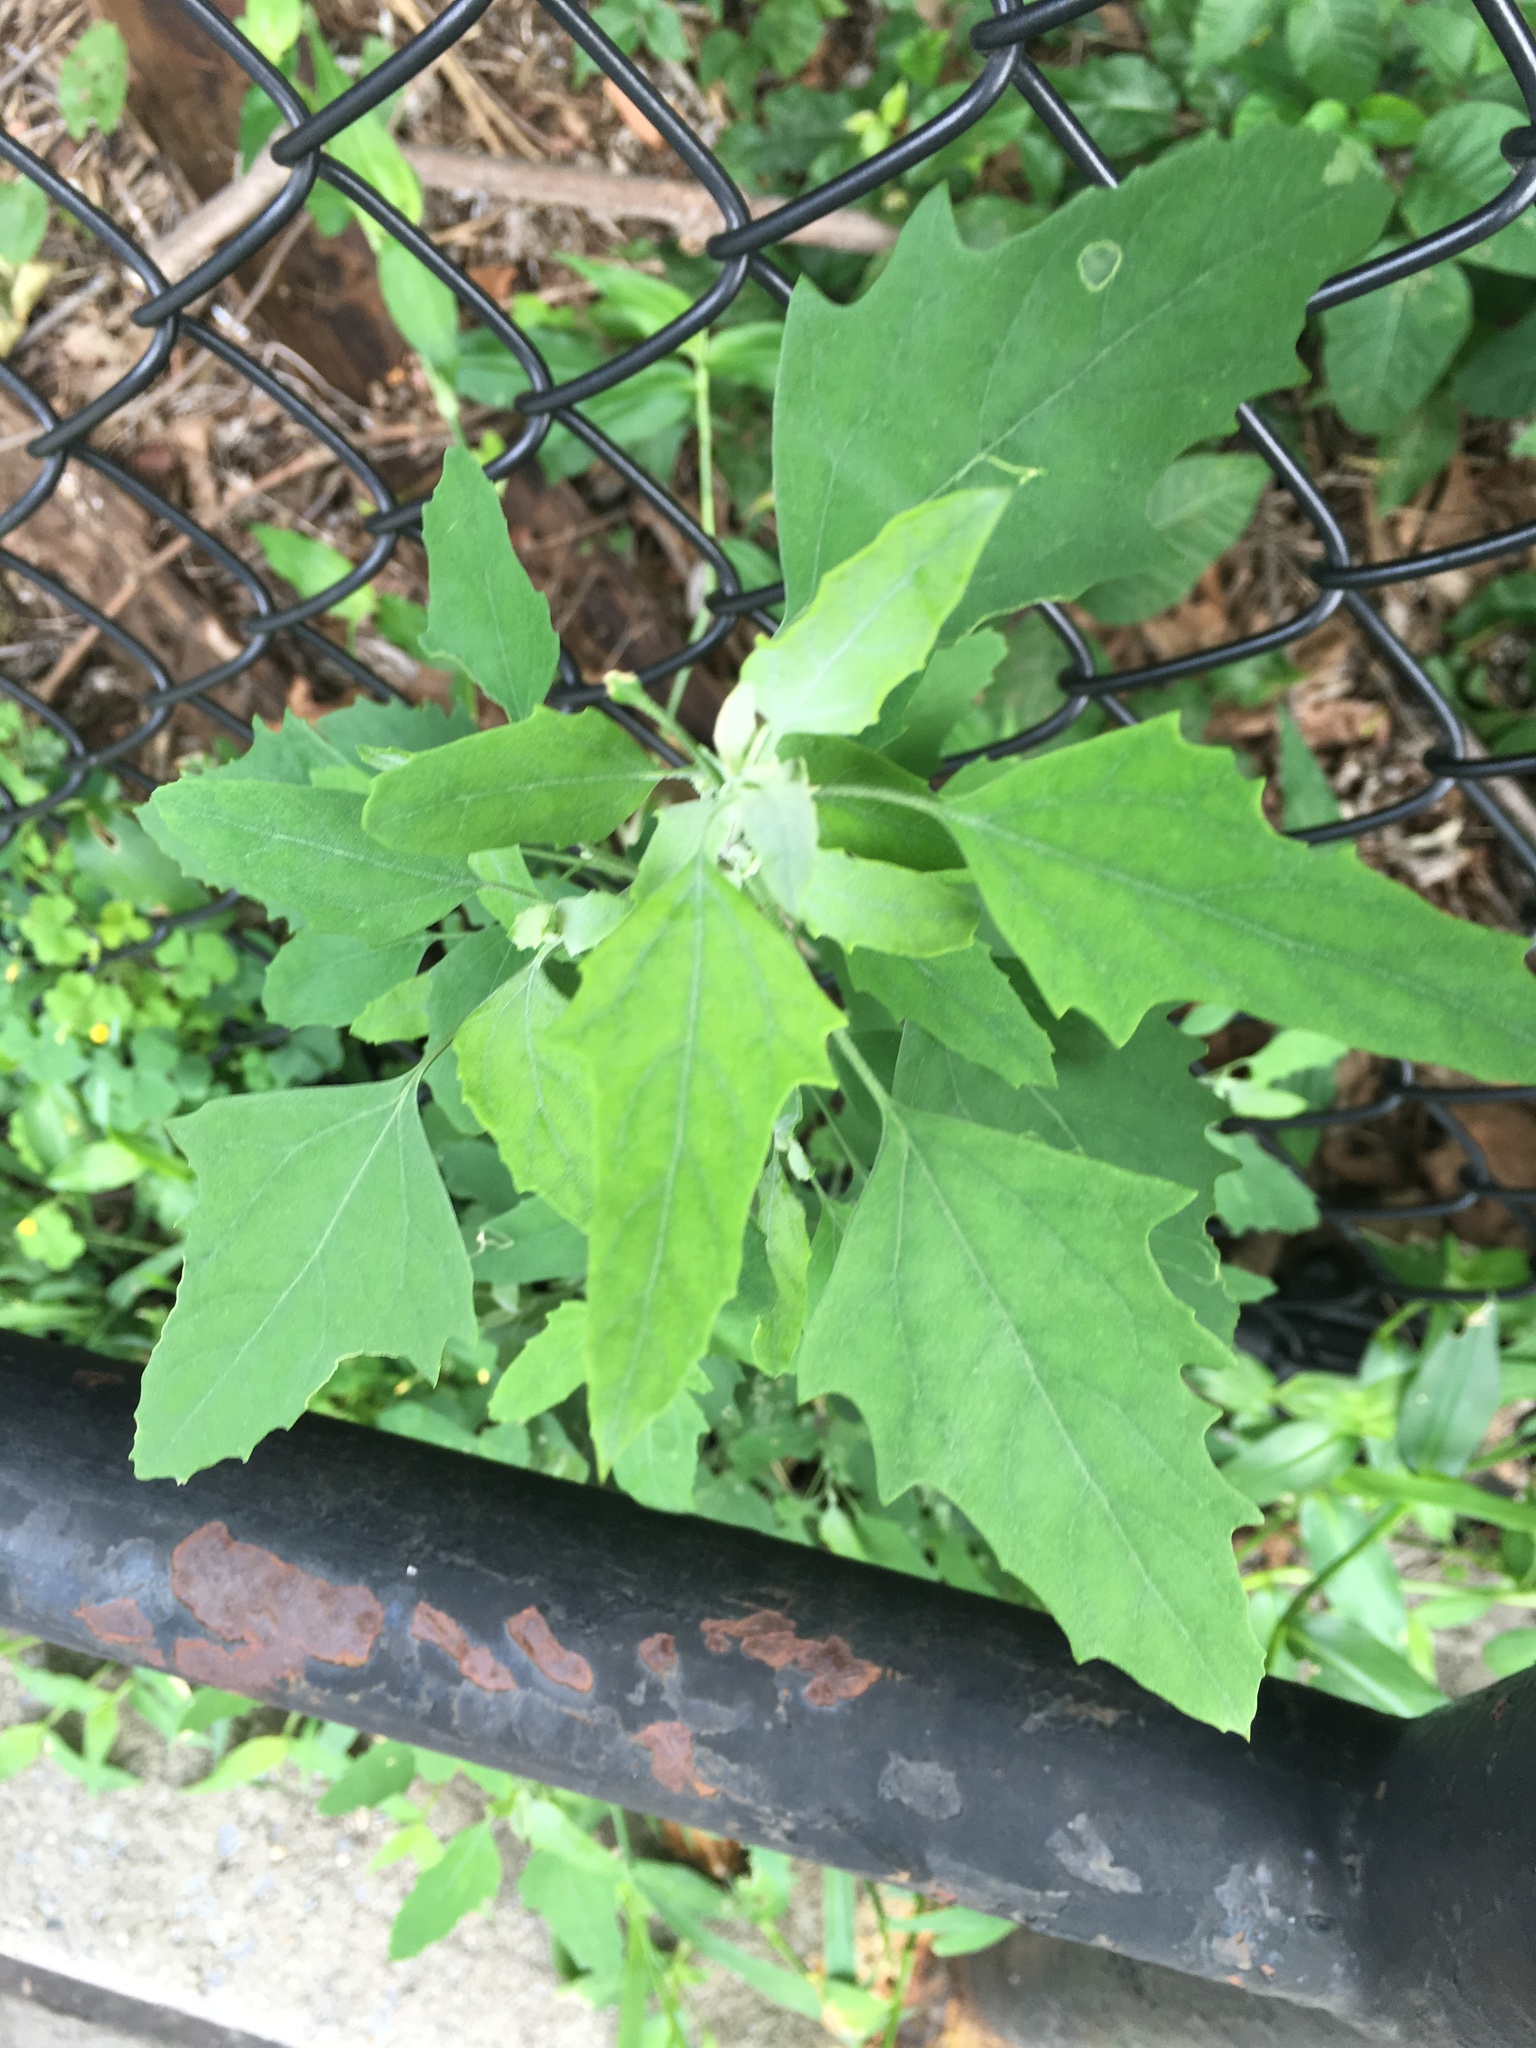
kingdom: Plantae
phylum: Tracheophyta
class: Magnoliopsida
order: Caryophyllales
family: Amaranthaceae
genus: Chenopodium
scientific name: Chenopodium album
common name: Fat-hen
